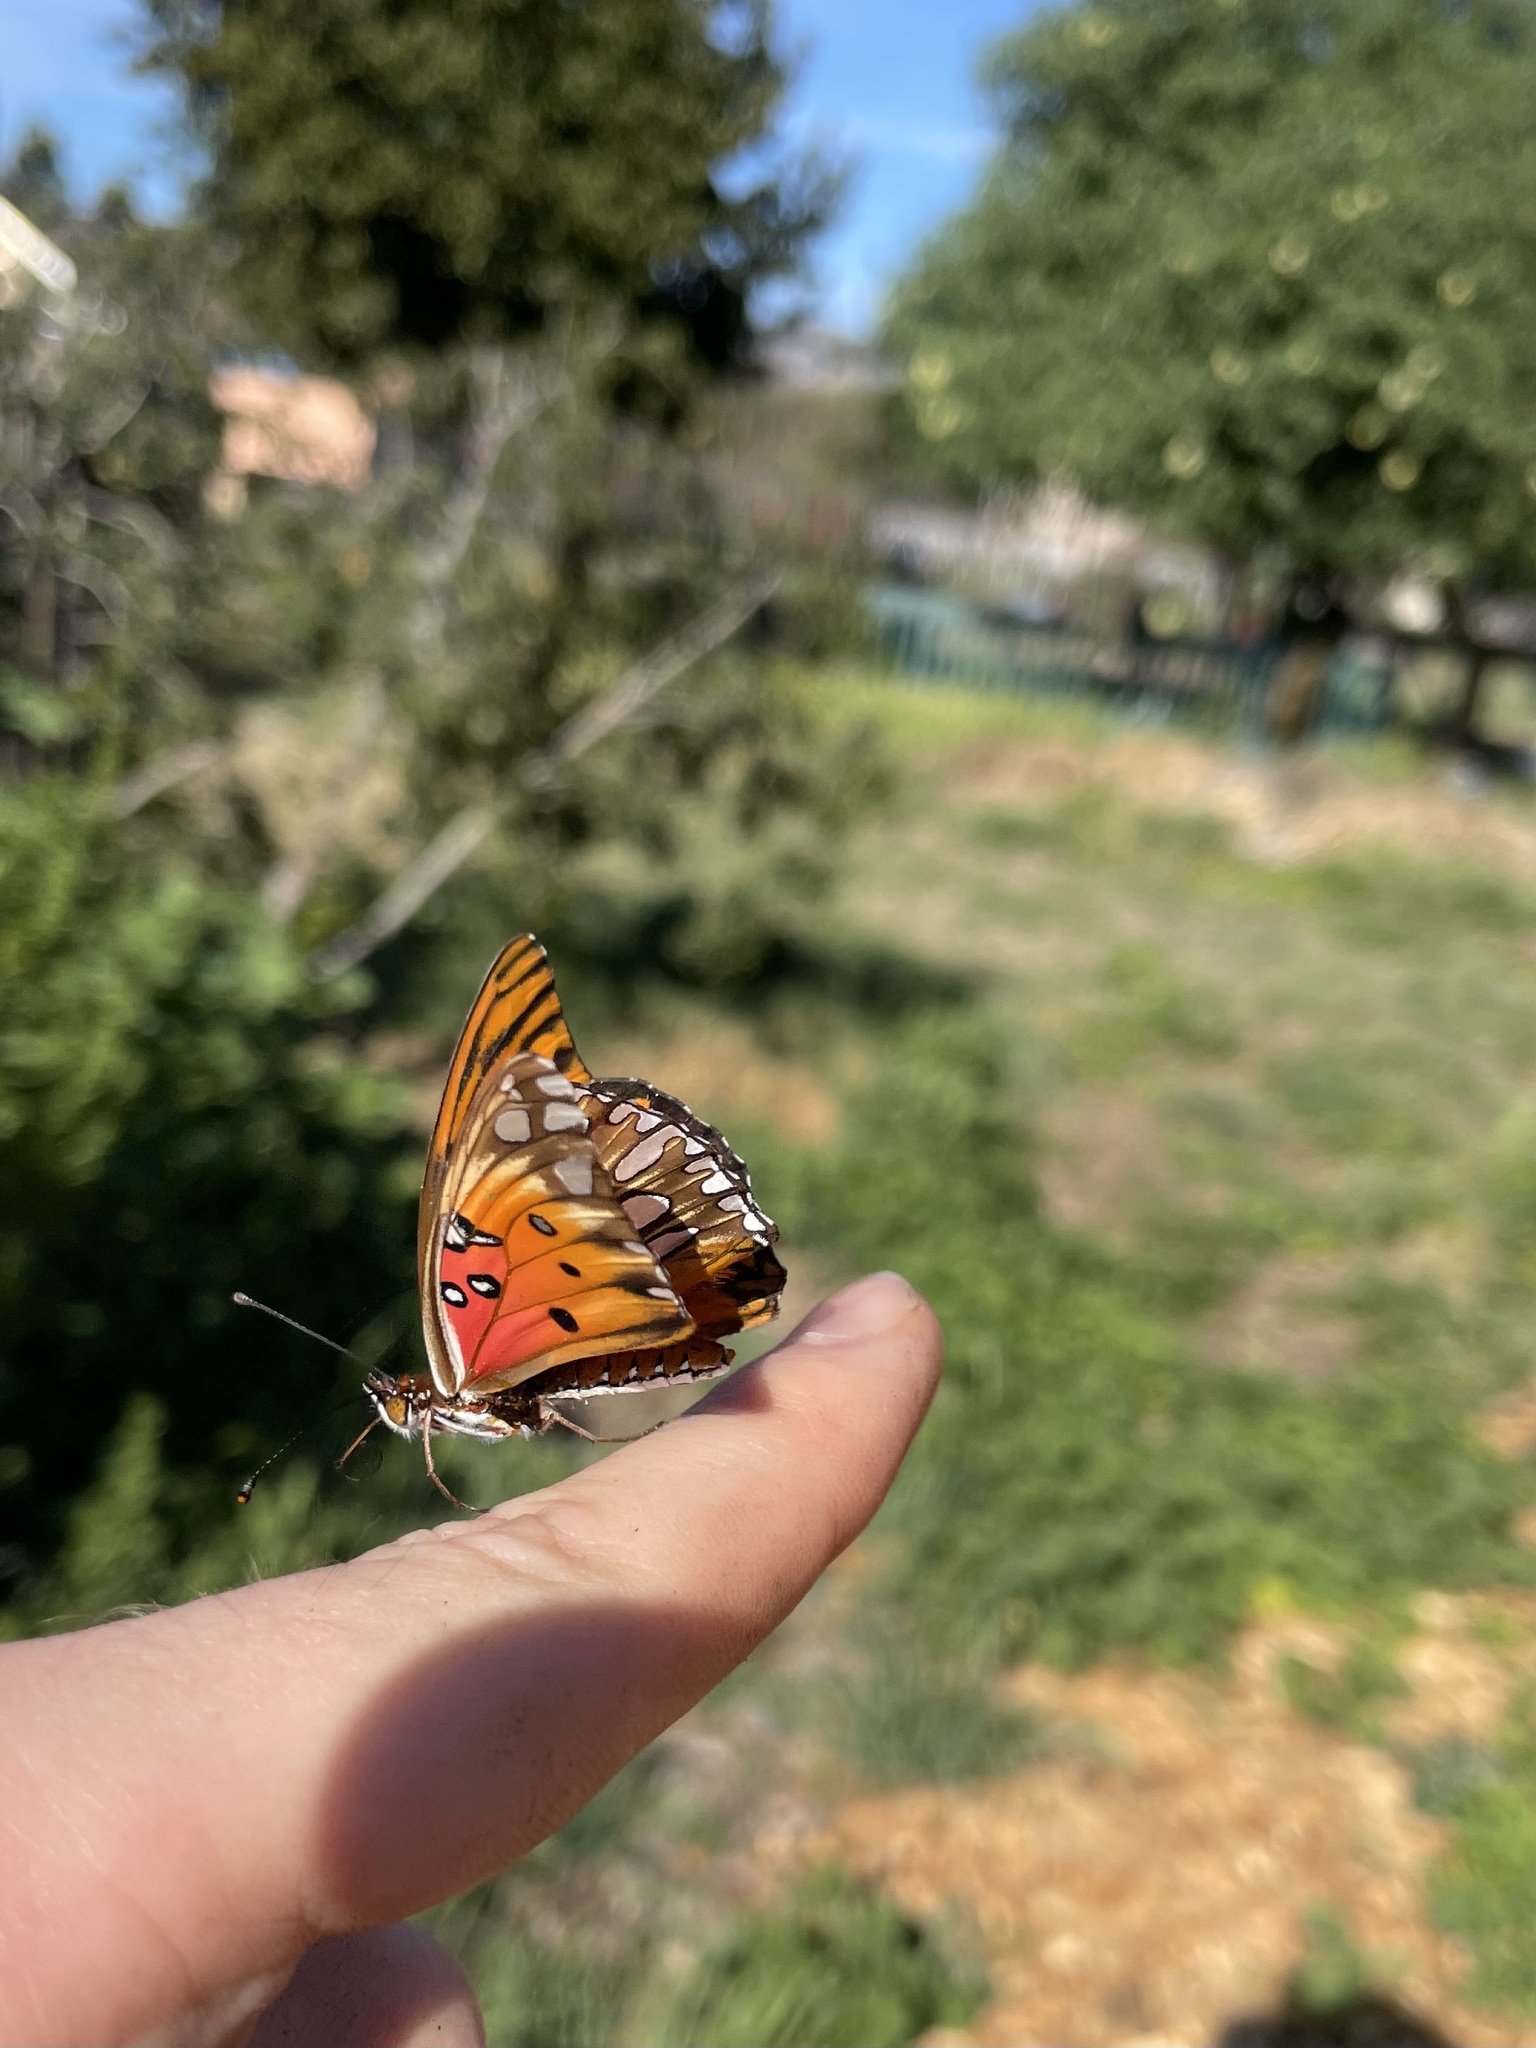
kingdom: Animalia
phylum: Arthropoda
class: Insecta
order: Lepidoptera
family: Nymphalidae
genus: Dione
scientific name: Dione vanillae
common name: Gulf fritillary
